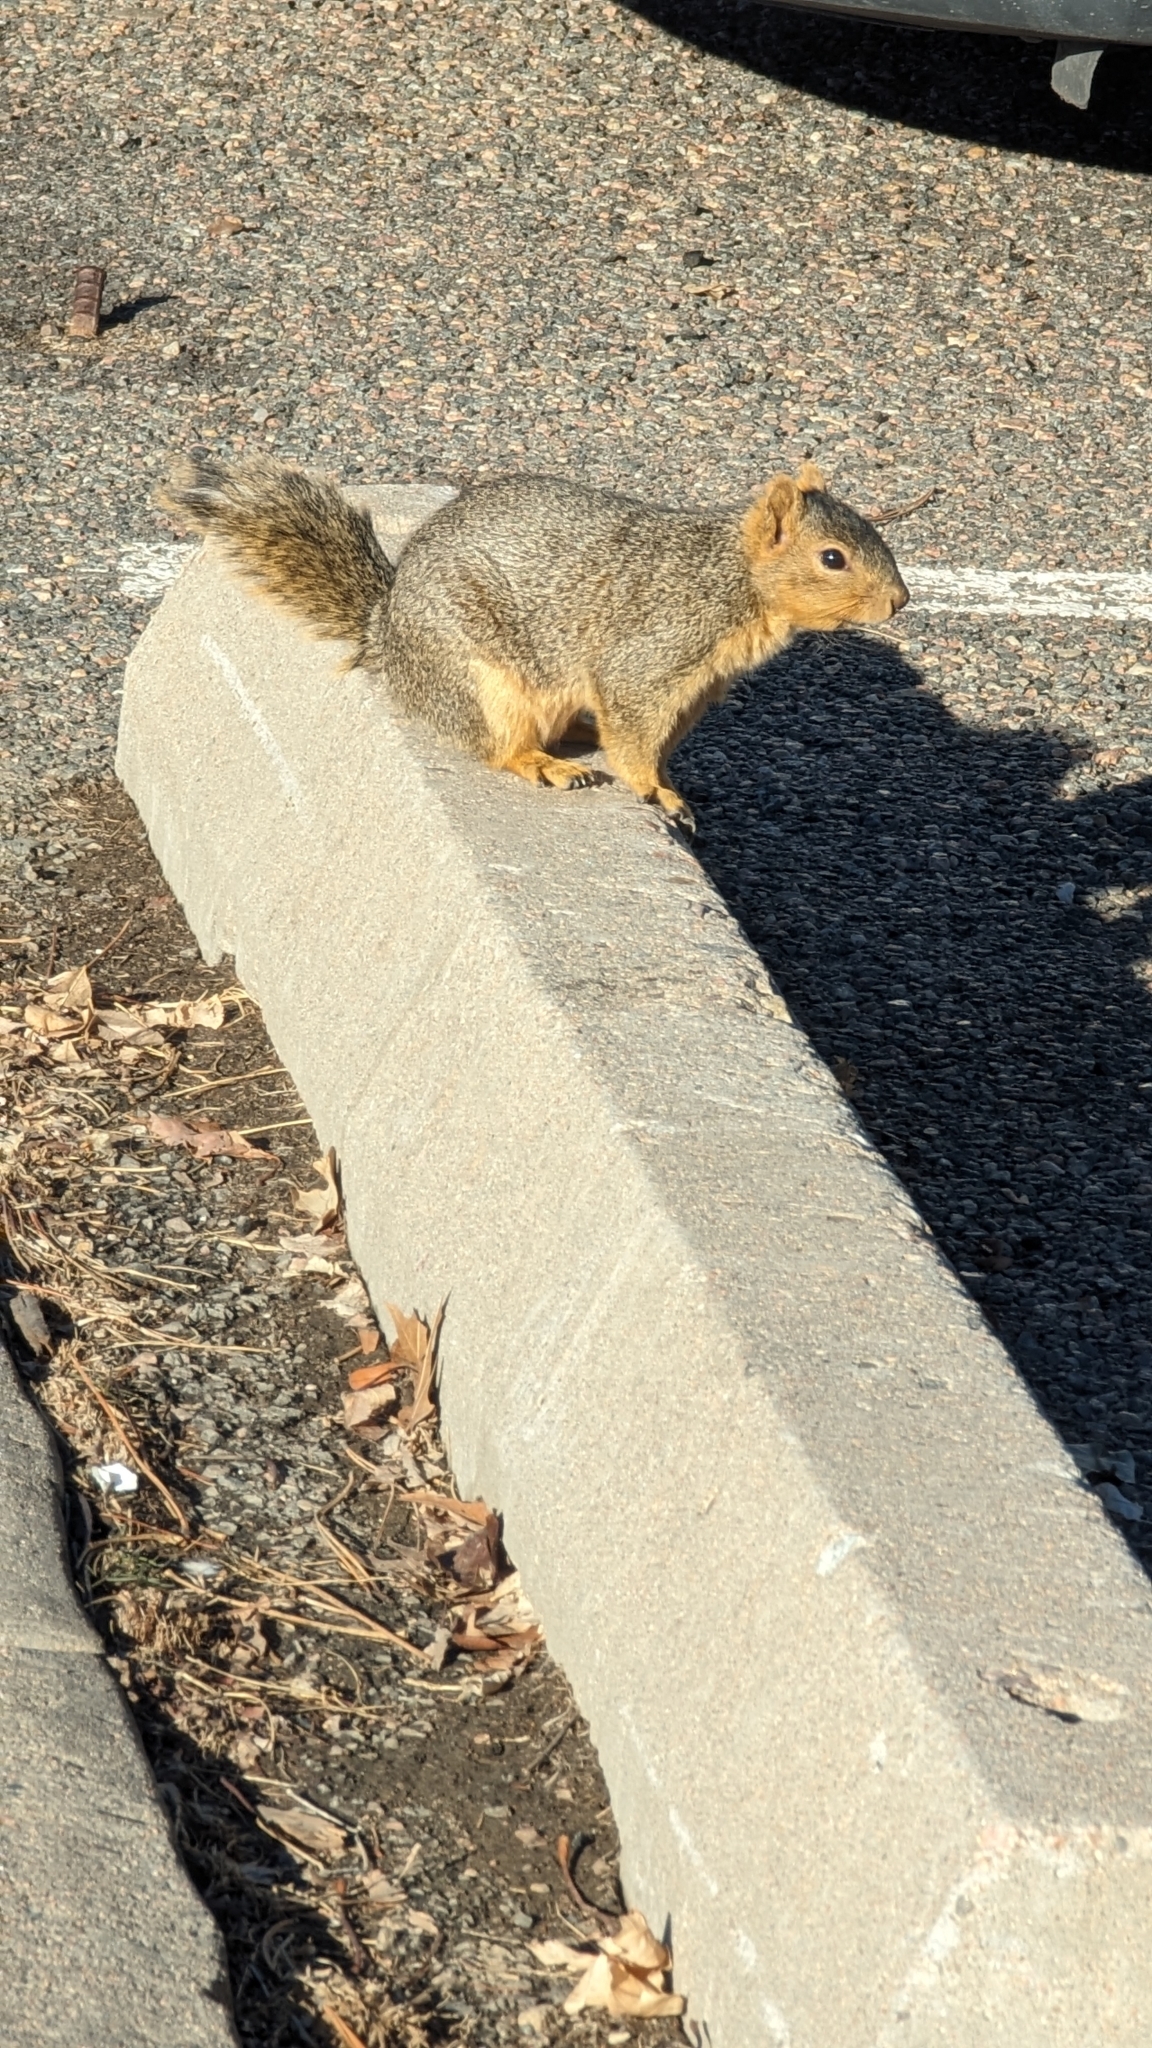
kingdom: Animalia
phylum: Chordata
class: Mammalia
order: Rodentia
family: Sciuridae
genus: Sciurus
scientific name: Sciurus niger
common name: Fox squirrel
